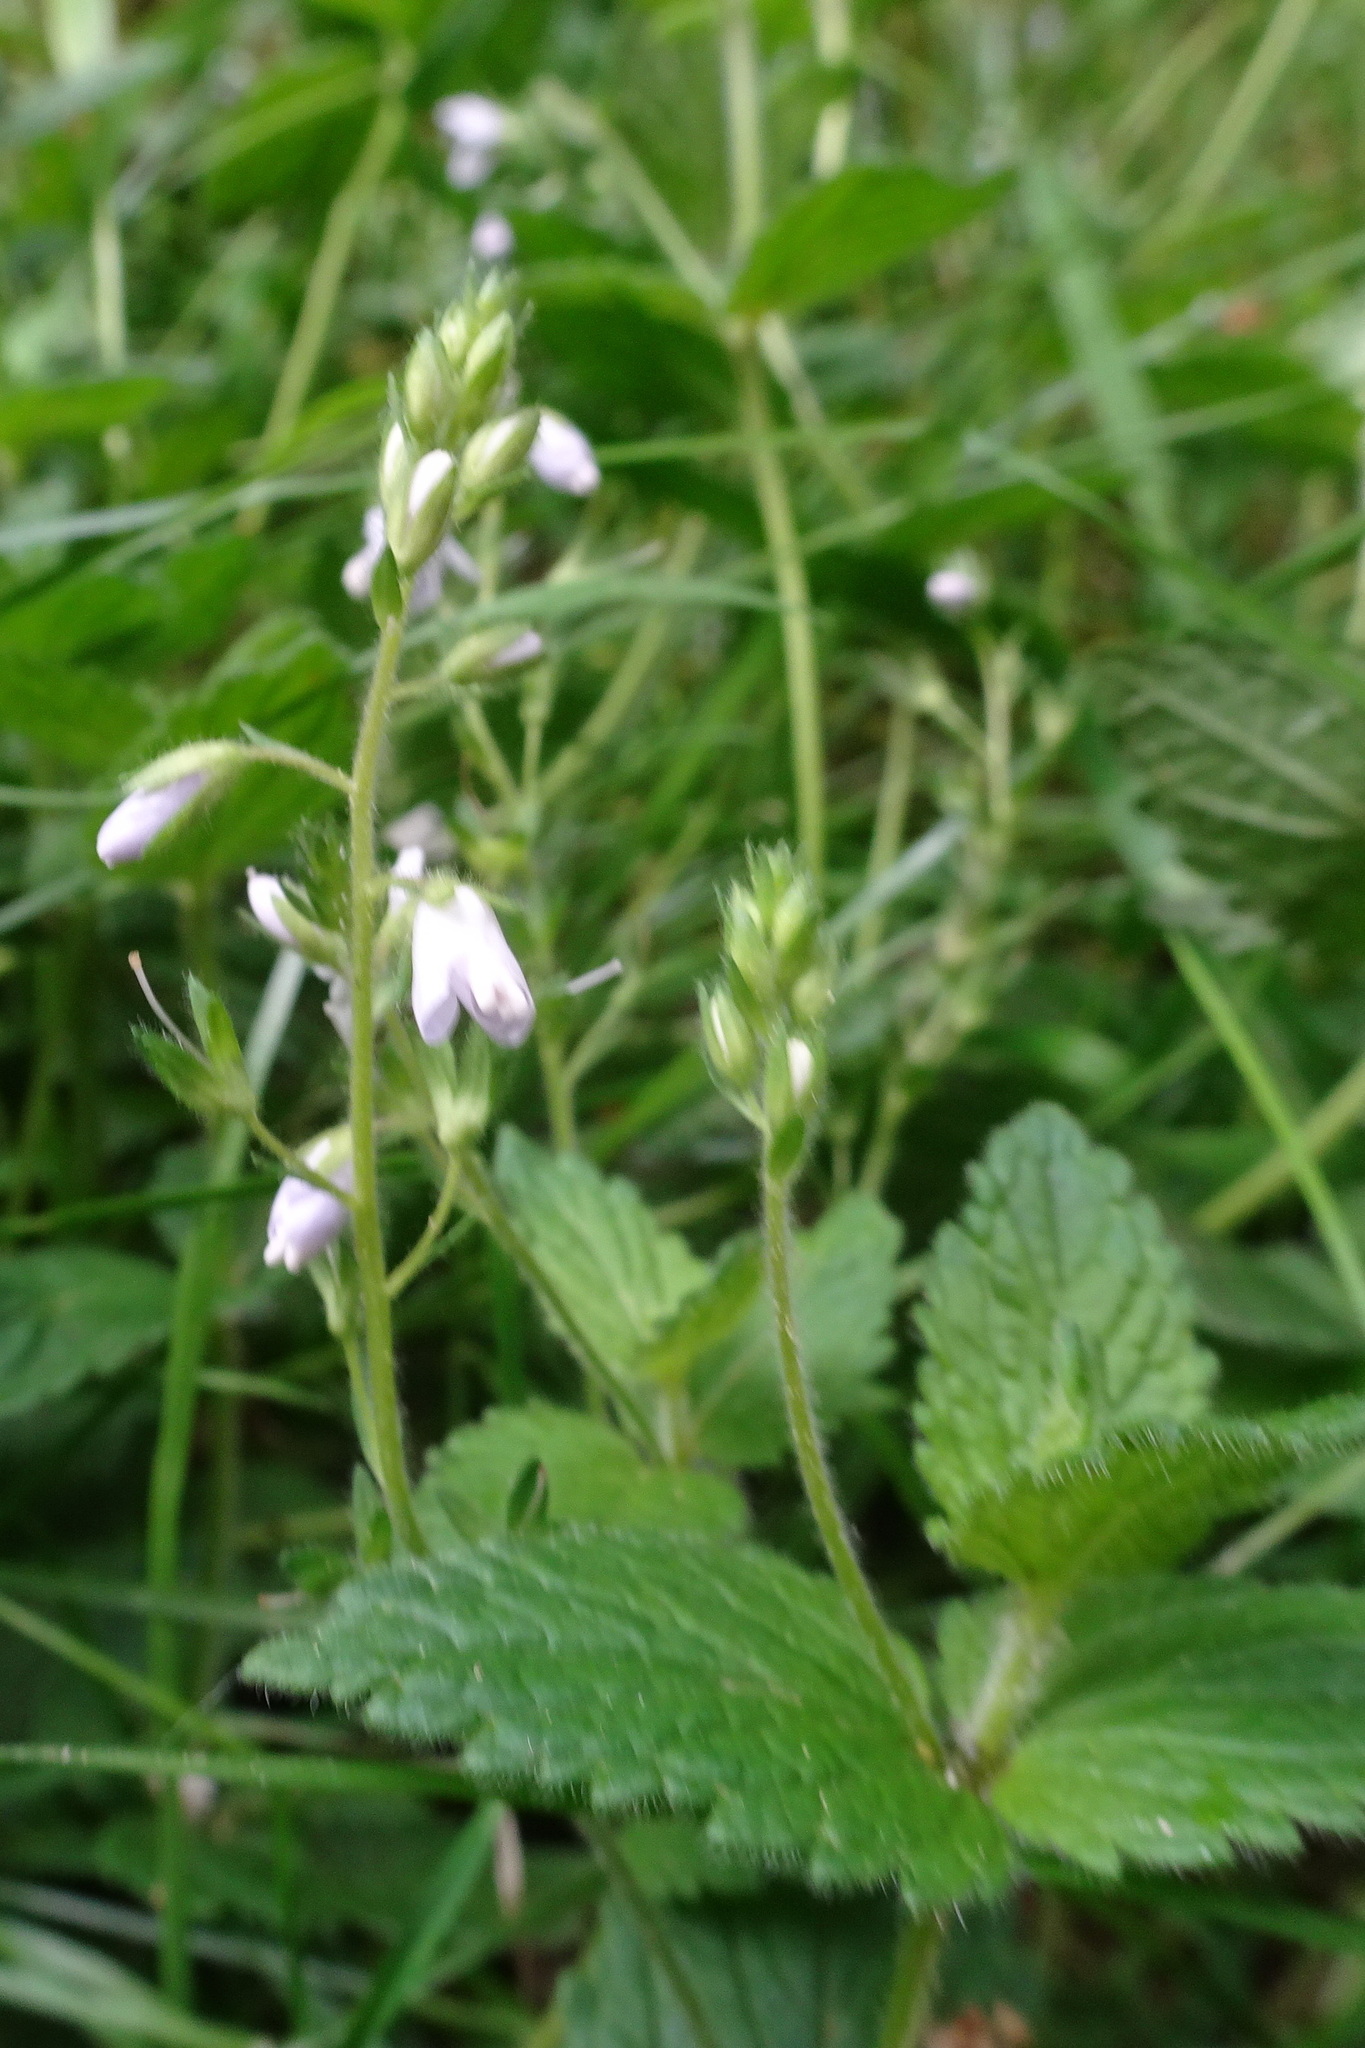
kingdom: Plantae
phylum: Tracheophyta
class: Magnoliopsida
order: Lamiales
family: Plantaginaceae
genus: Veronica
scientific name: Veronica chamaedrys
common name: Germander speedwell
